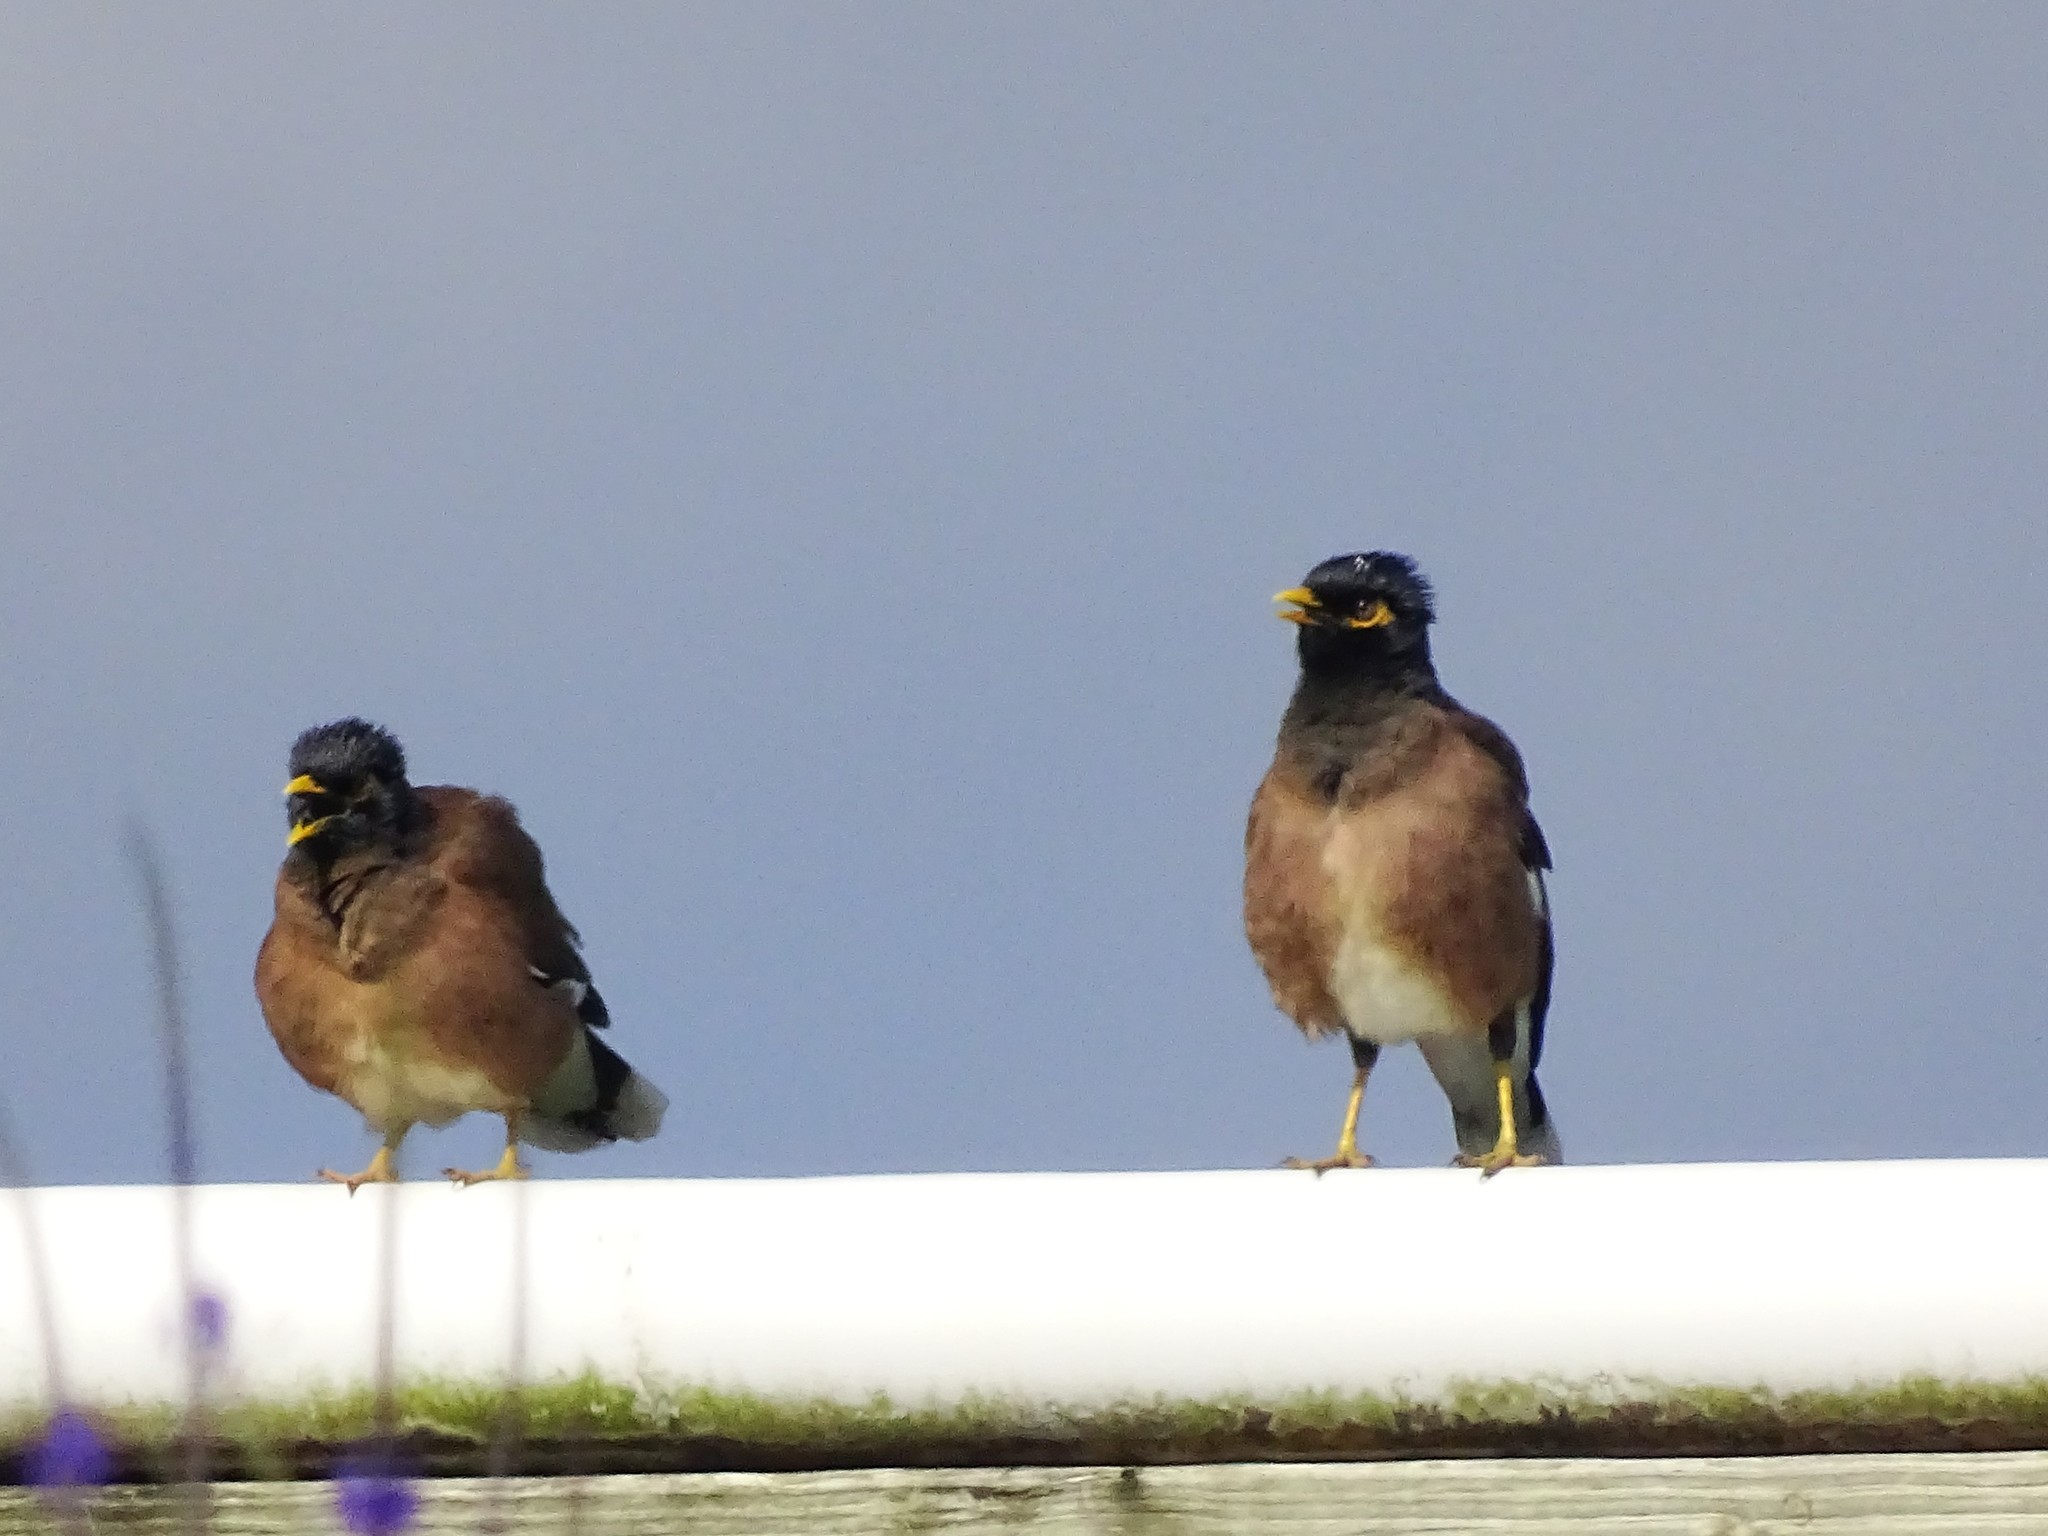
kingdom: Animalia
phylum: Chordata
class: Aves
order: Passeriformes
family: Sturnidae
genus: Acridotheres
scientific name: Acridotheres tristis
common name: Common myna
